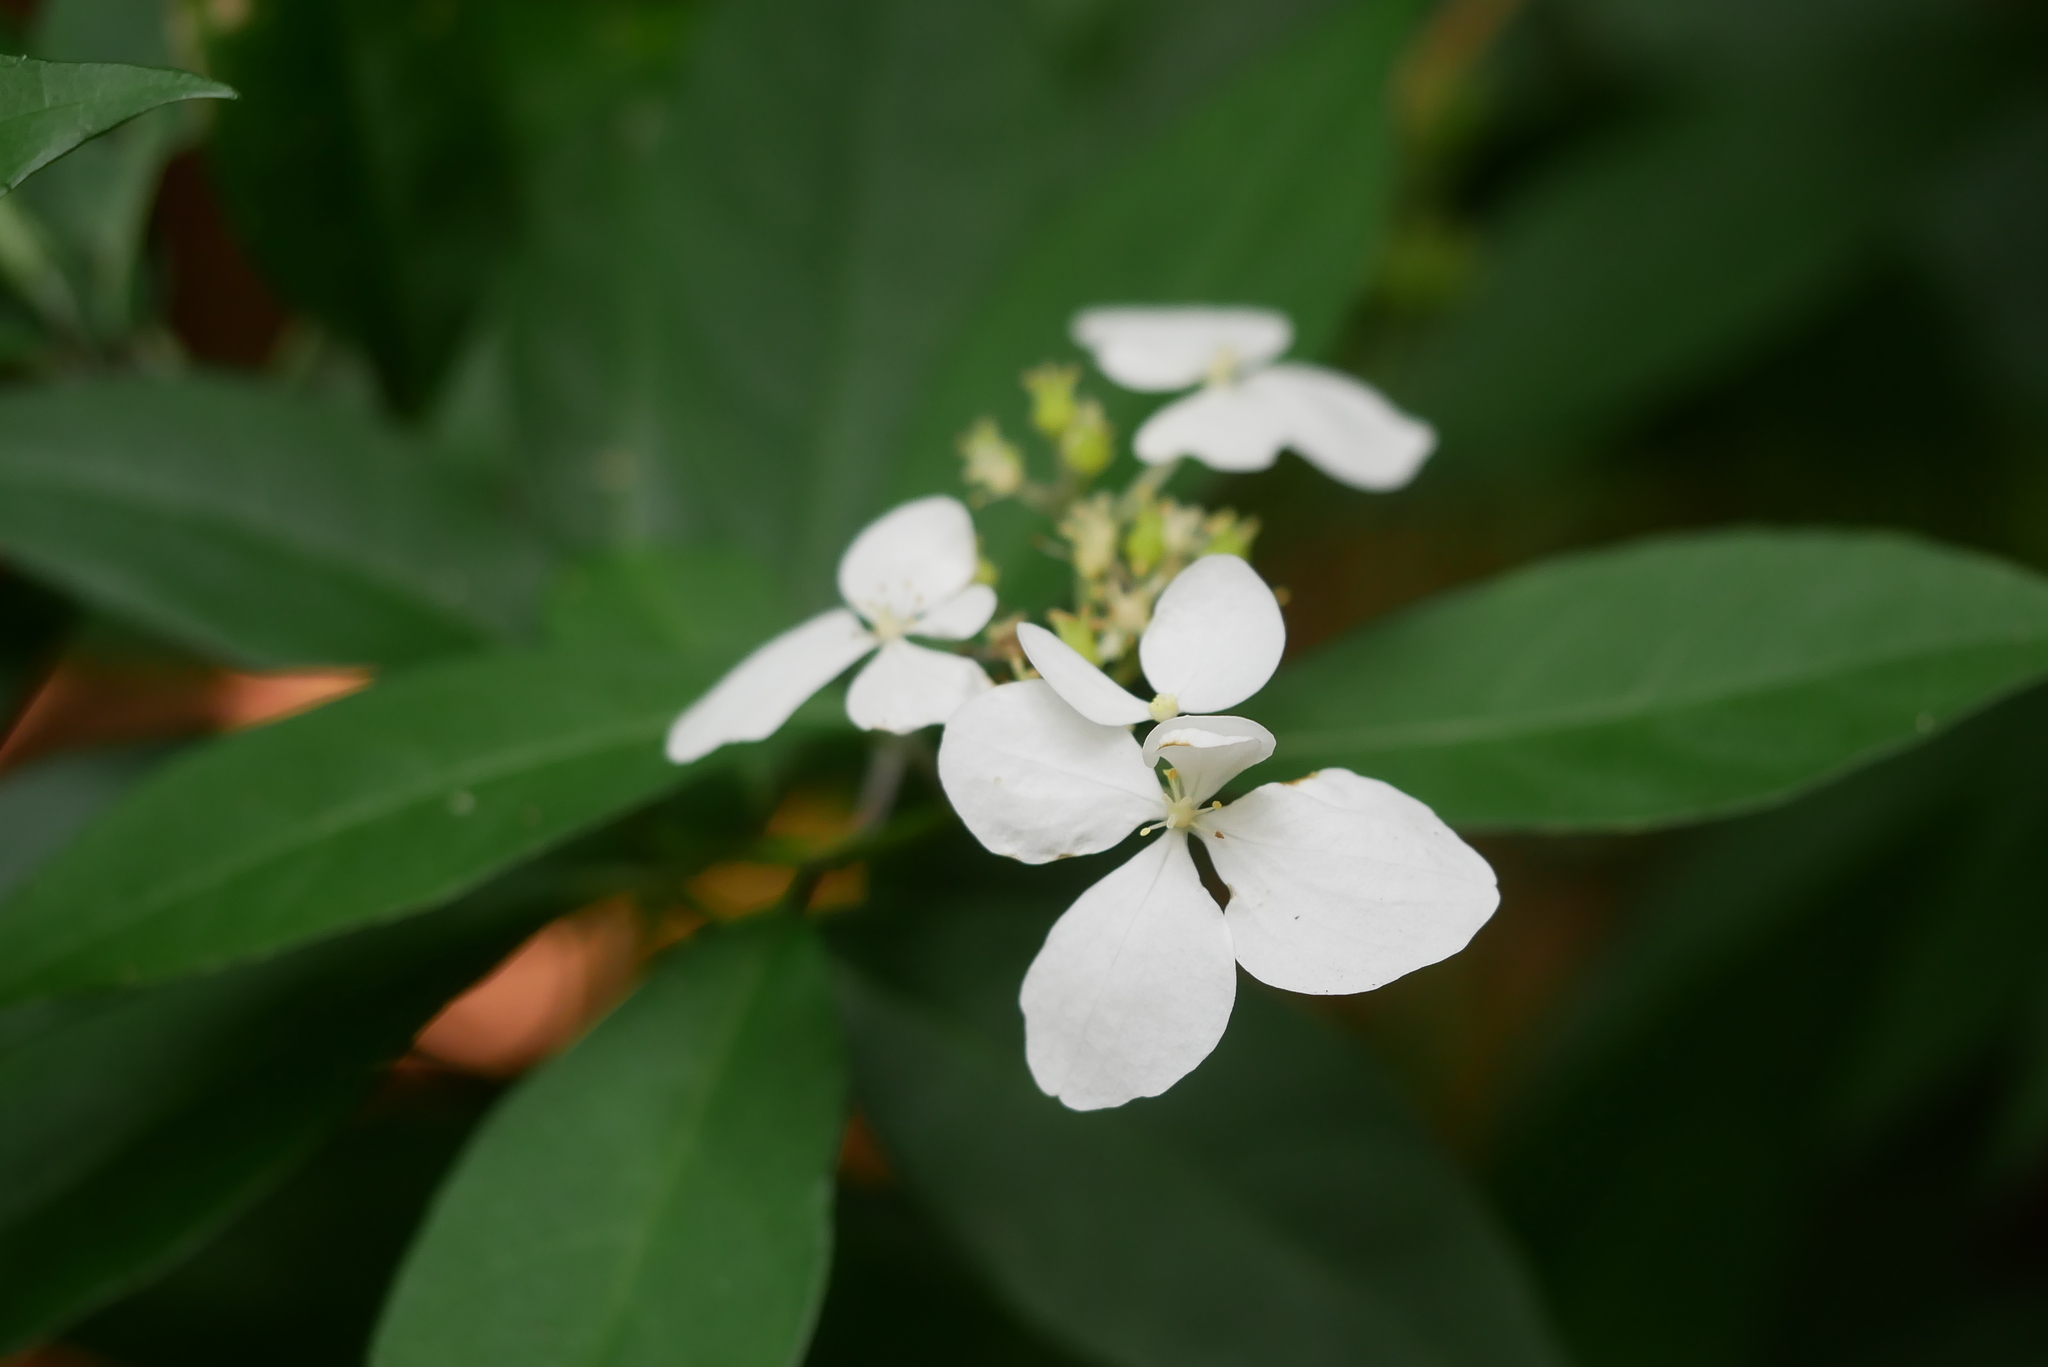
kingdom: Plantae
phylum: Tracheophyta
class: Magnoliopsida
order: Cornales
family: Hydrangeaceae
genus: Hydrangea
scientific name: Hydrangea chinensis
